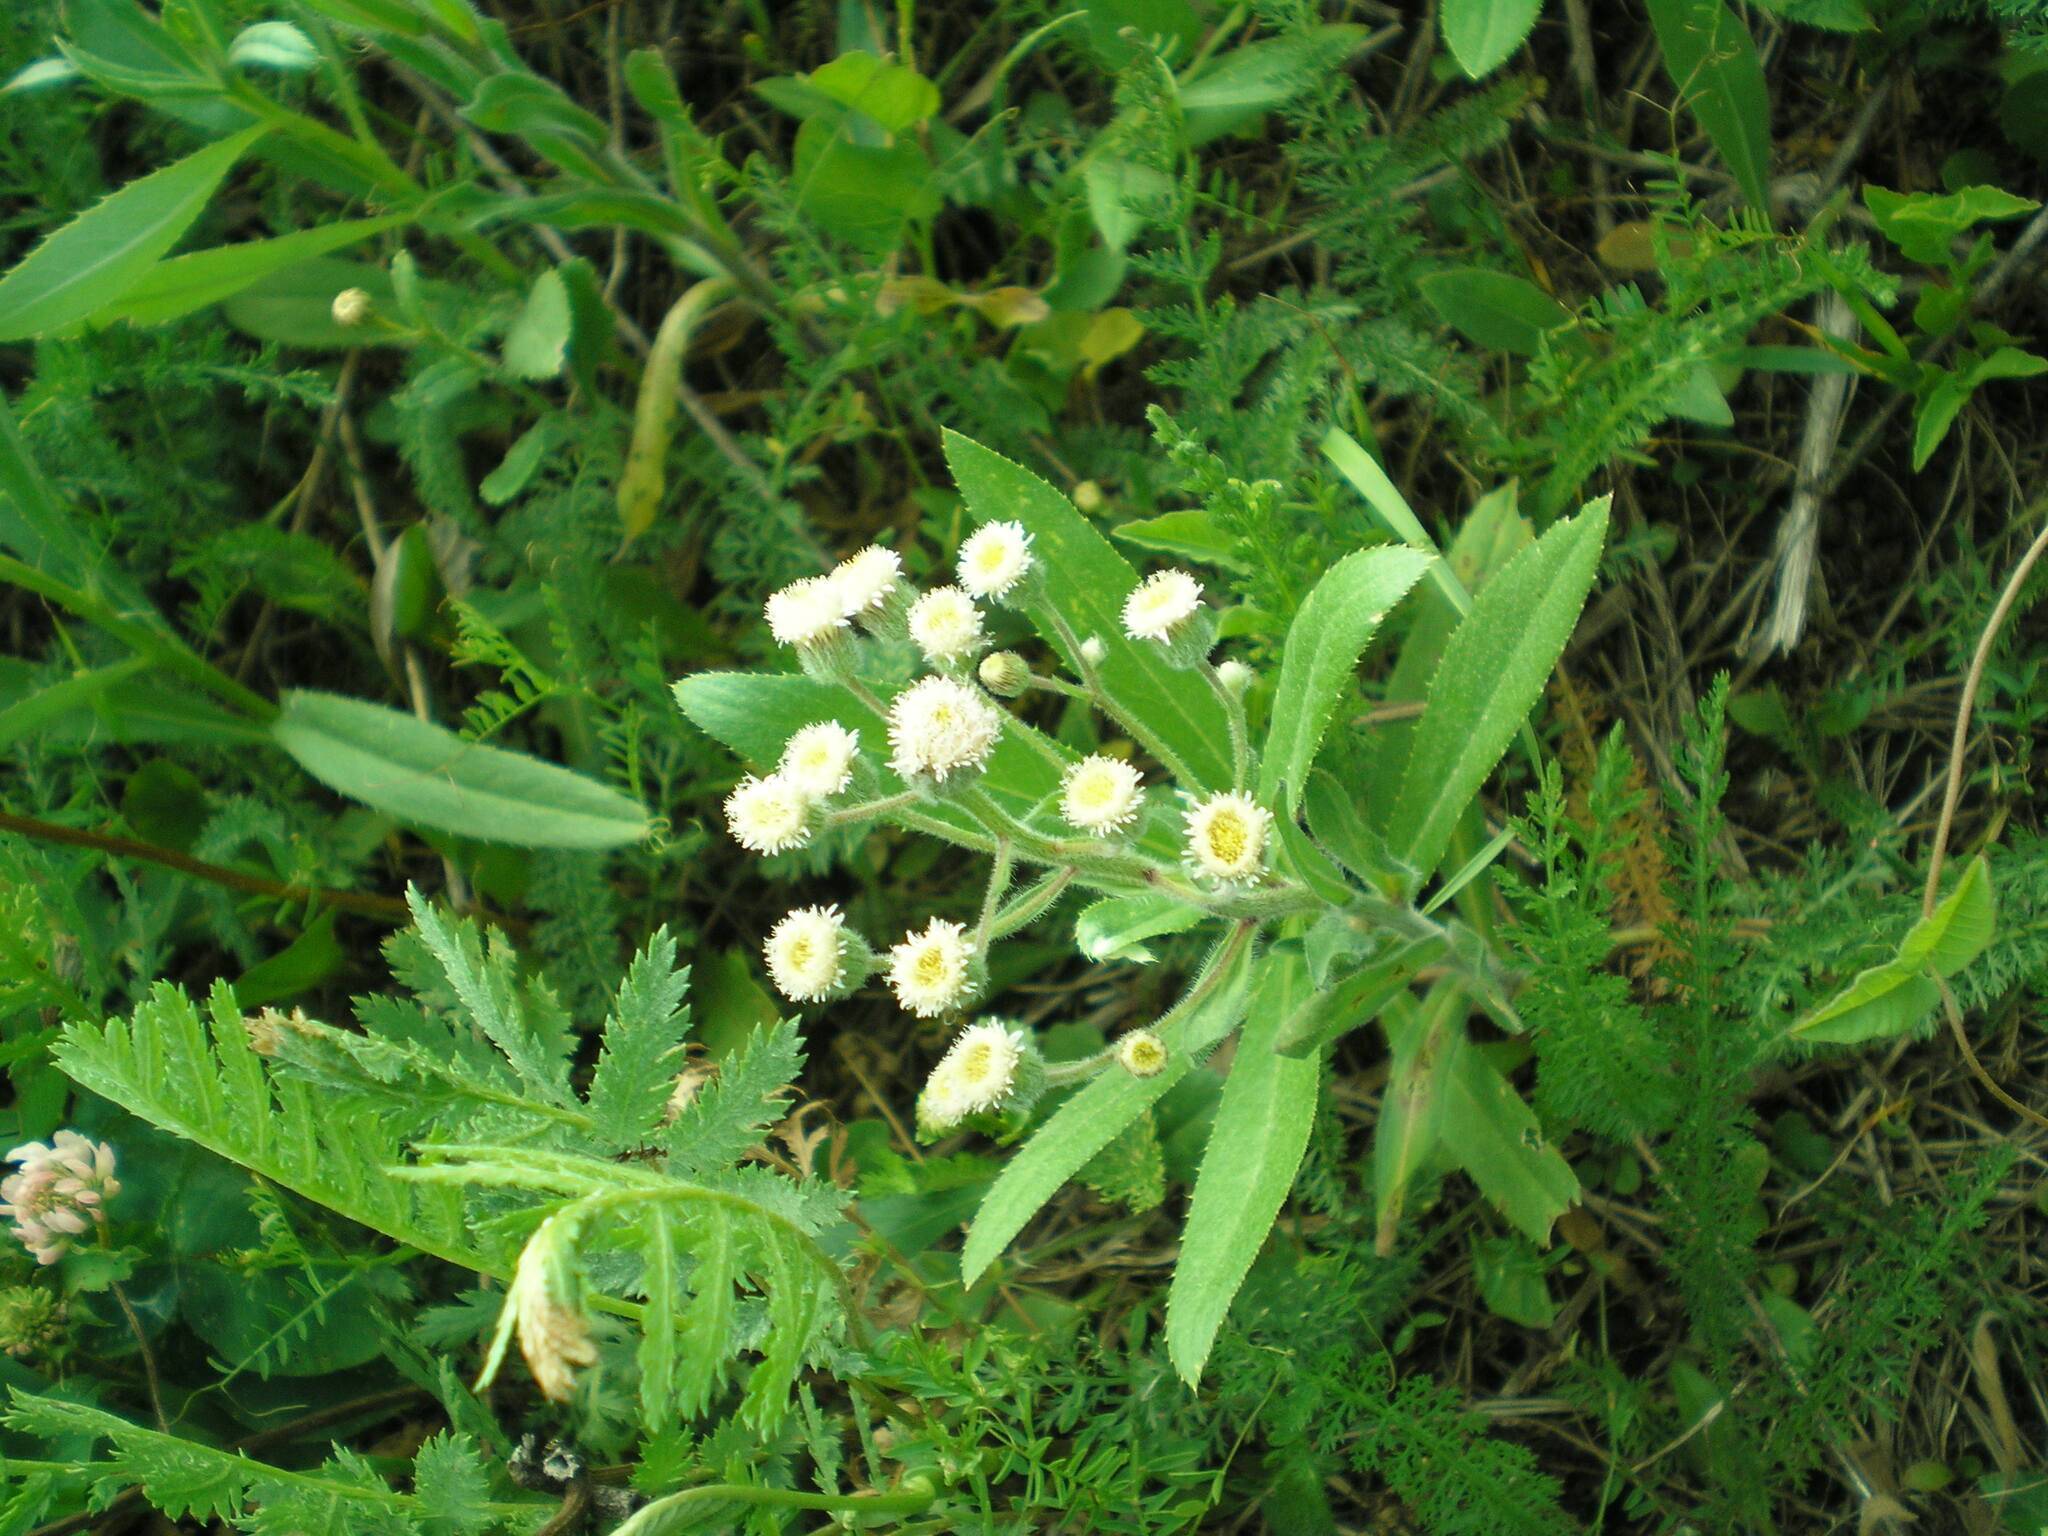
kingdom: Plantae
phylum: Tracheophyta
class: Magnoliopsida
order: Asterales
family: Asteraceae
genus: Erigeron
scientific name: Erigeron acris
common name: Blue fleabane
